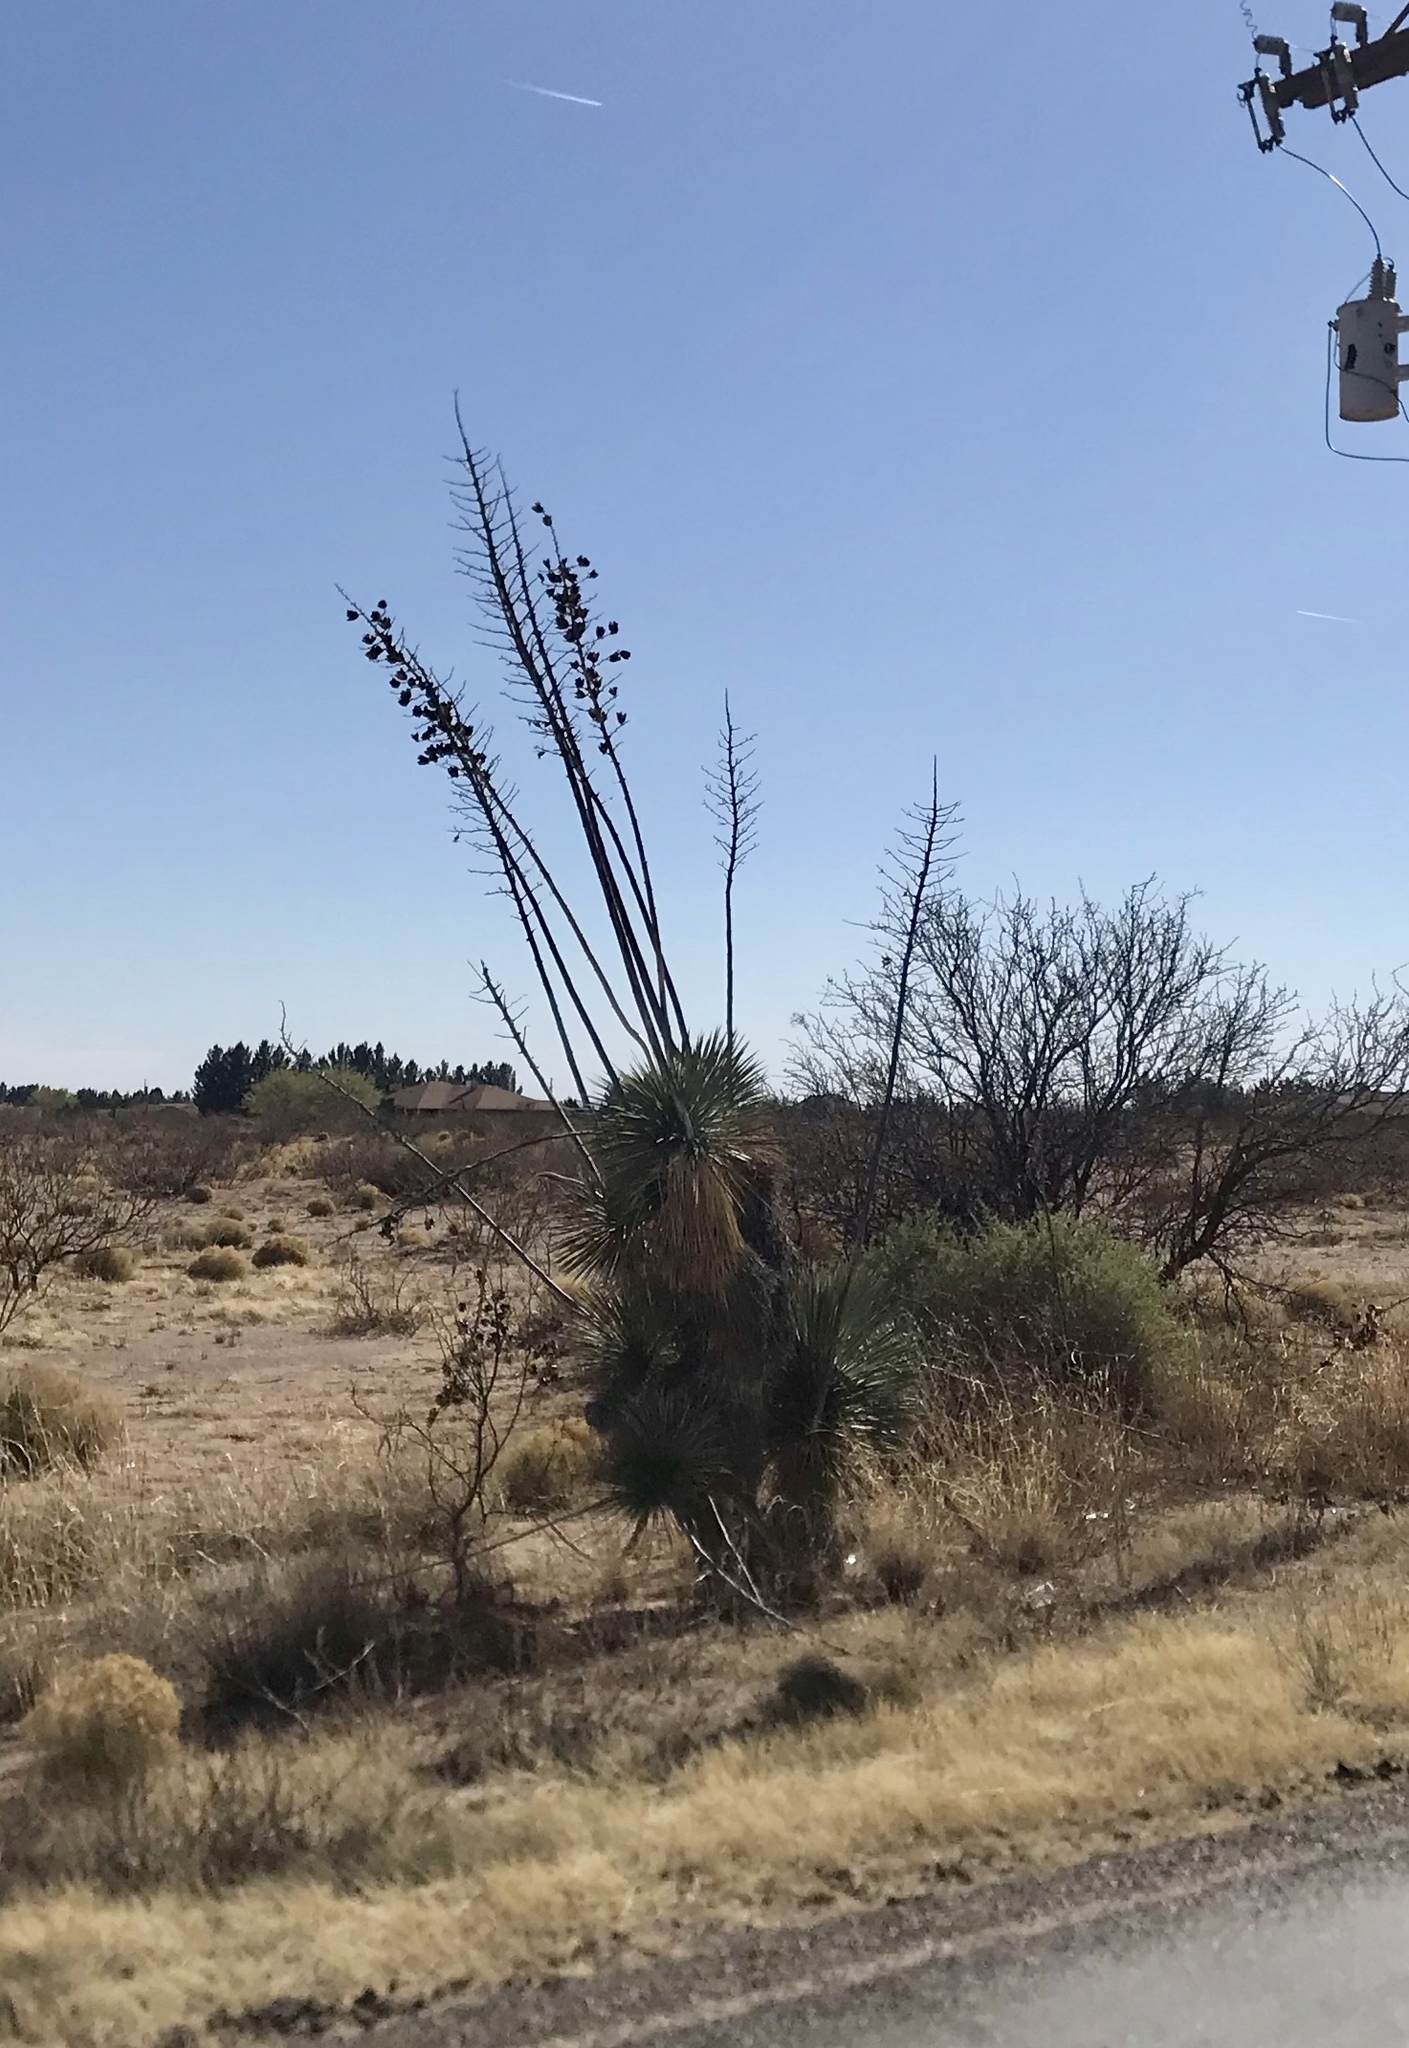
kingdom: Plantae
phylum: Tracheophyta
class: Liliopsida
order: Asparagales
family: Asparagaceae
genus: Yucca
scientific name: Yucca elata
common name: Palmella
